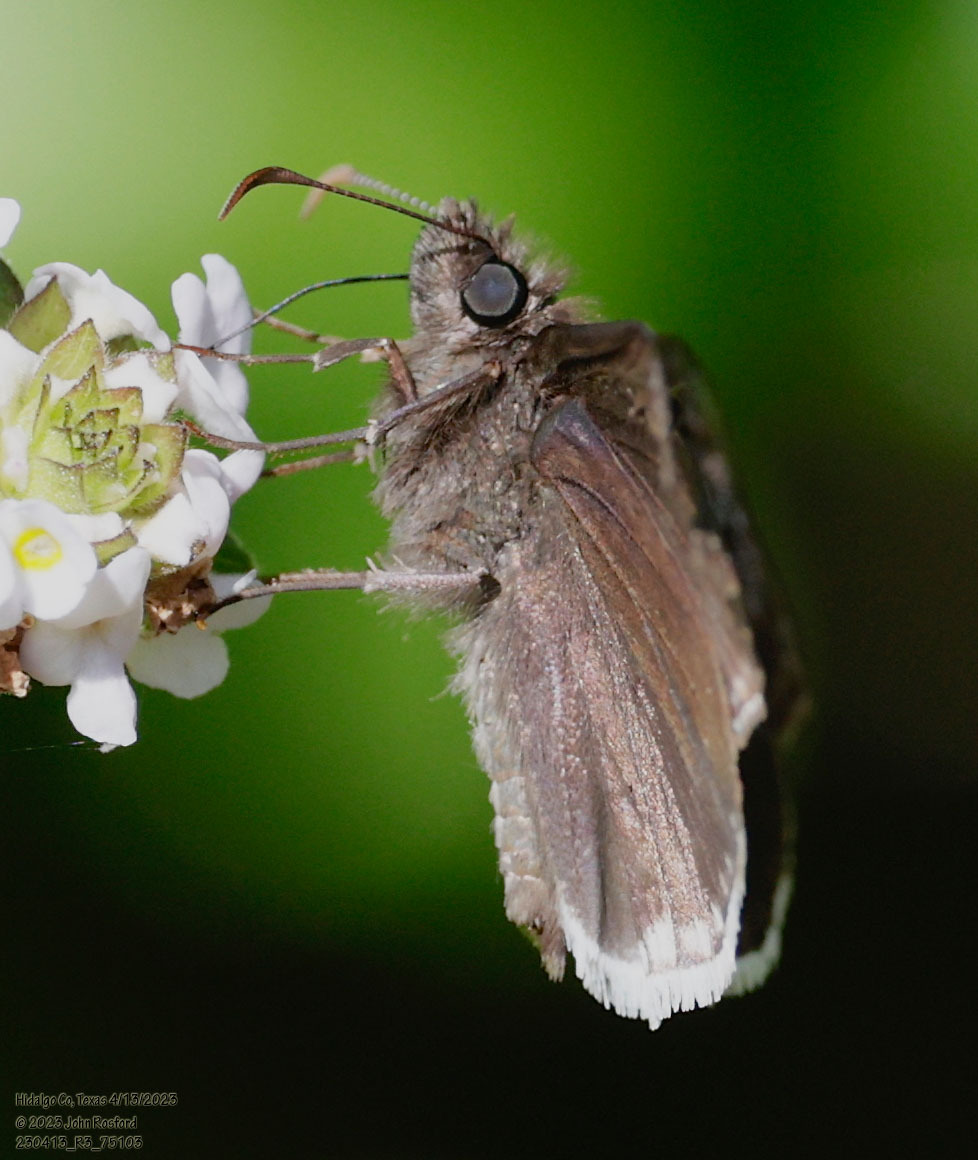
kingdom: Animalia
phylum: Arthropoda
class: Insecta
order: Lepidoptera
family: Hesperiidae
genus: Erynnis
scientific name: Erynnis tristis
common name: Mournful duskywing
